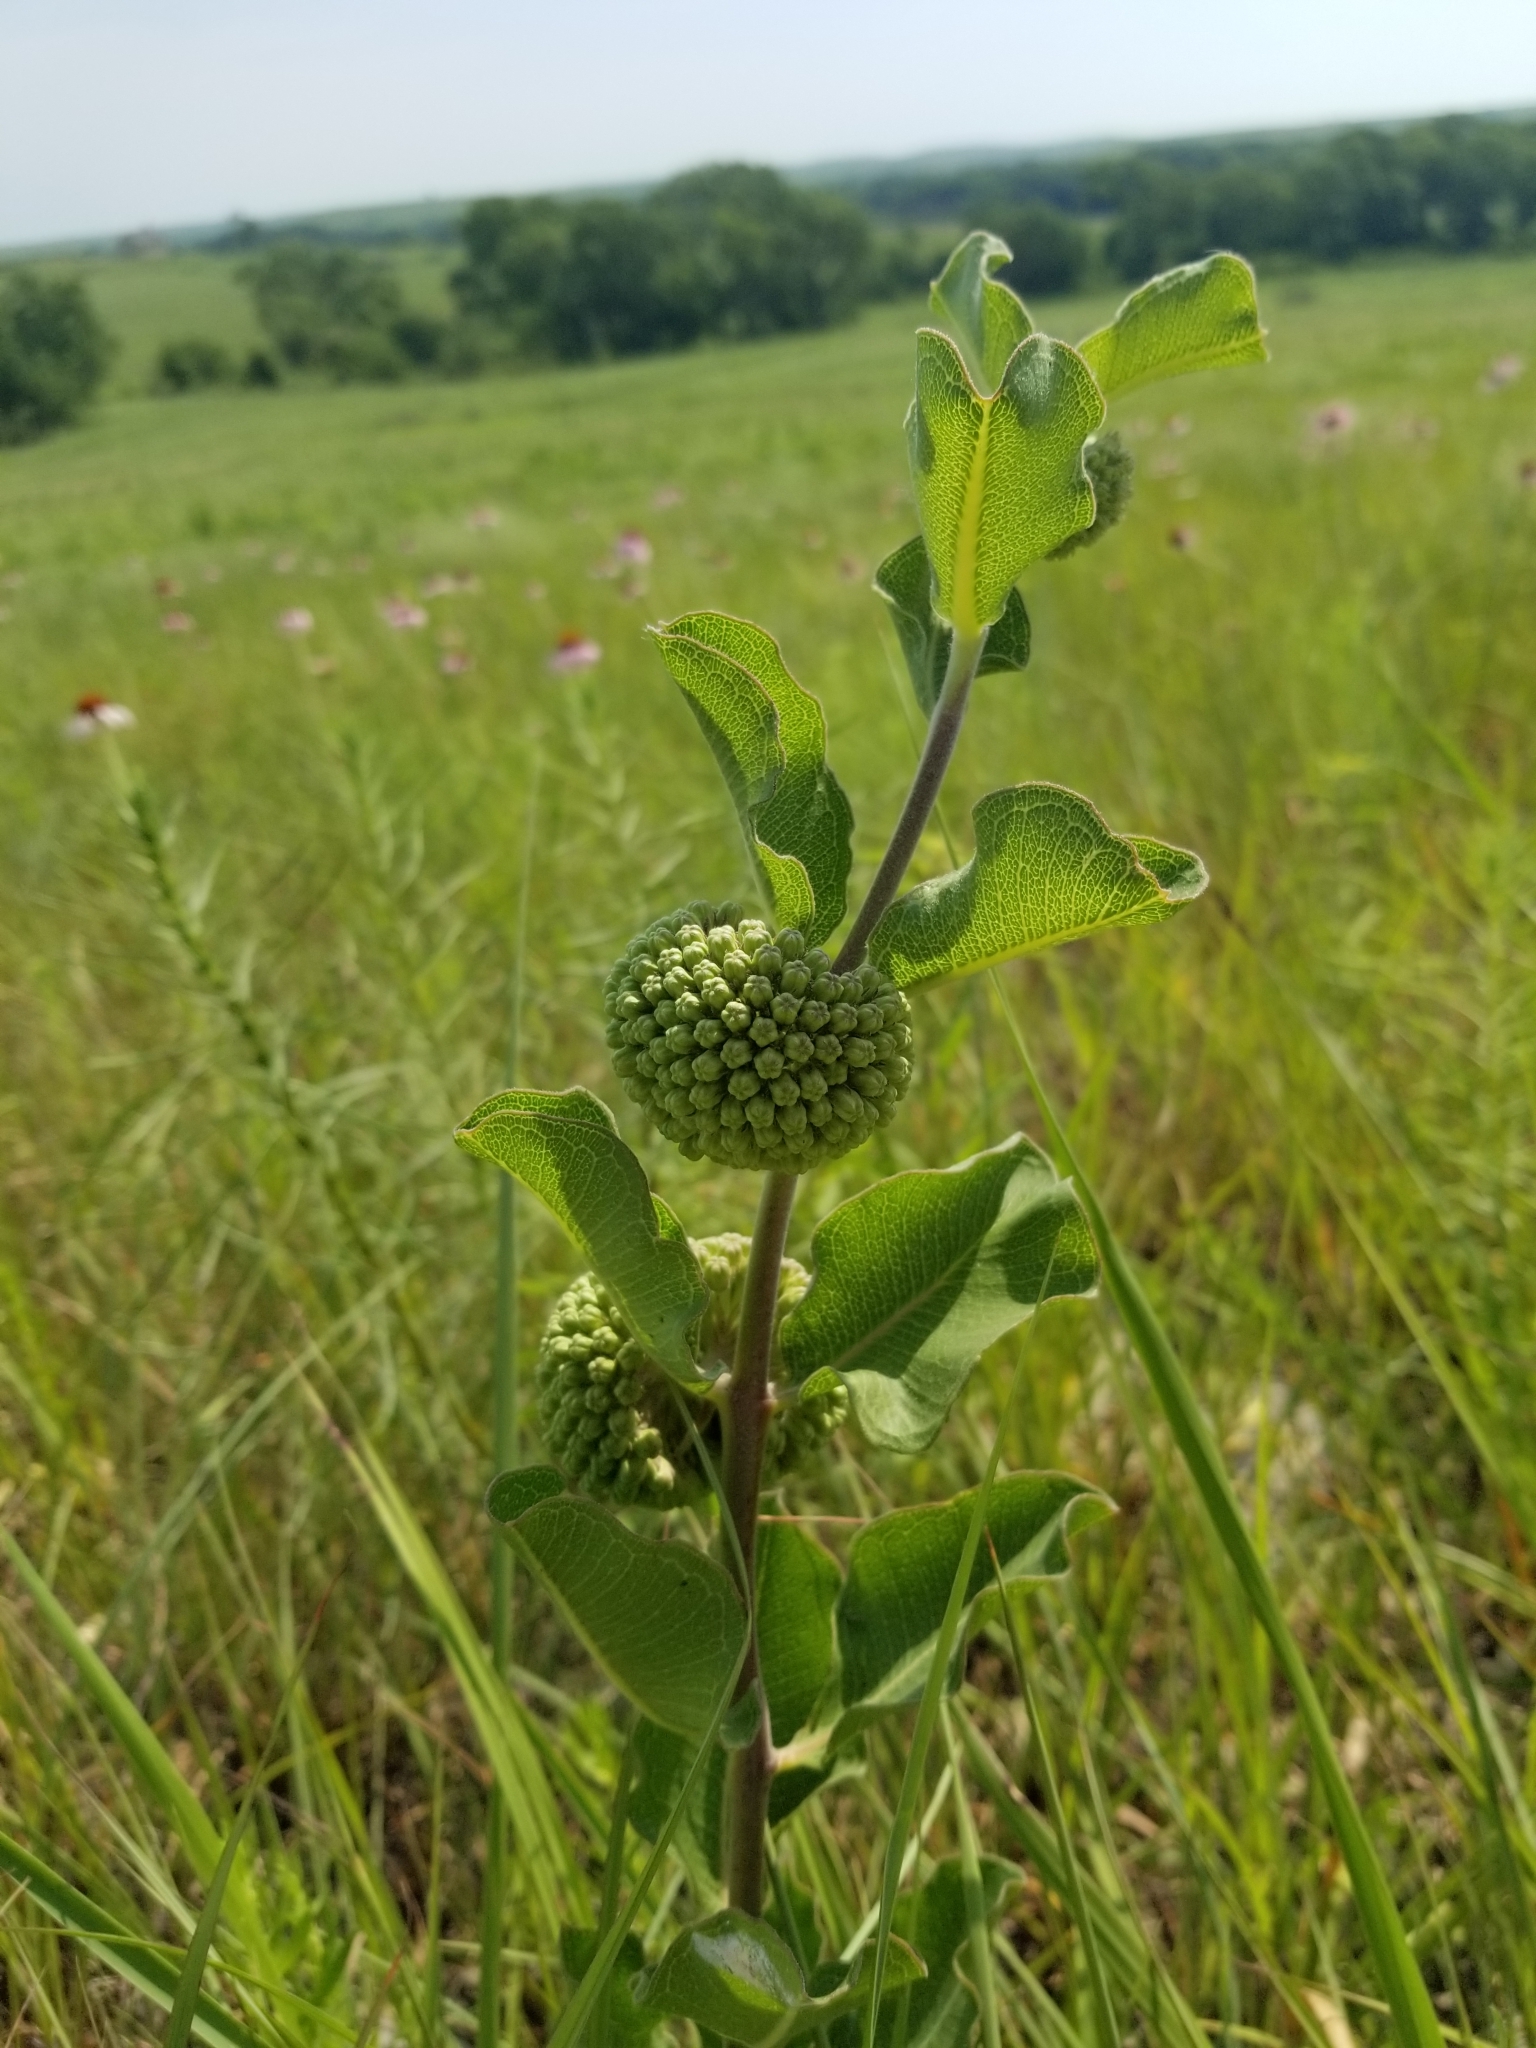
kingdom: Plantae
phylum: Tracheophyta
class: Magnoliopsida
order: Gentianales
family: Apocynaceae
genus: Asclepias
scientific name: Asclepias viridiflora
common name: Green comet milkweed
